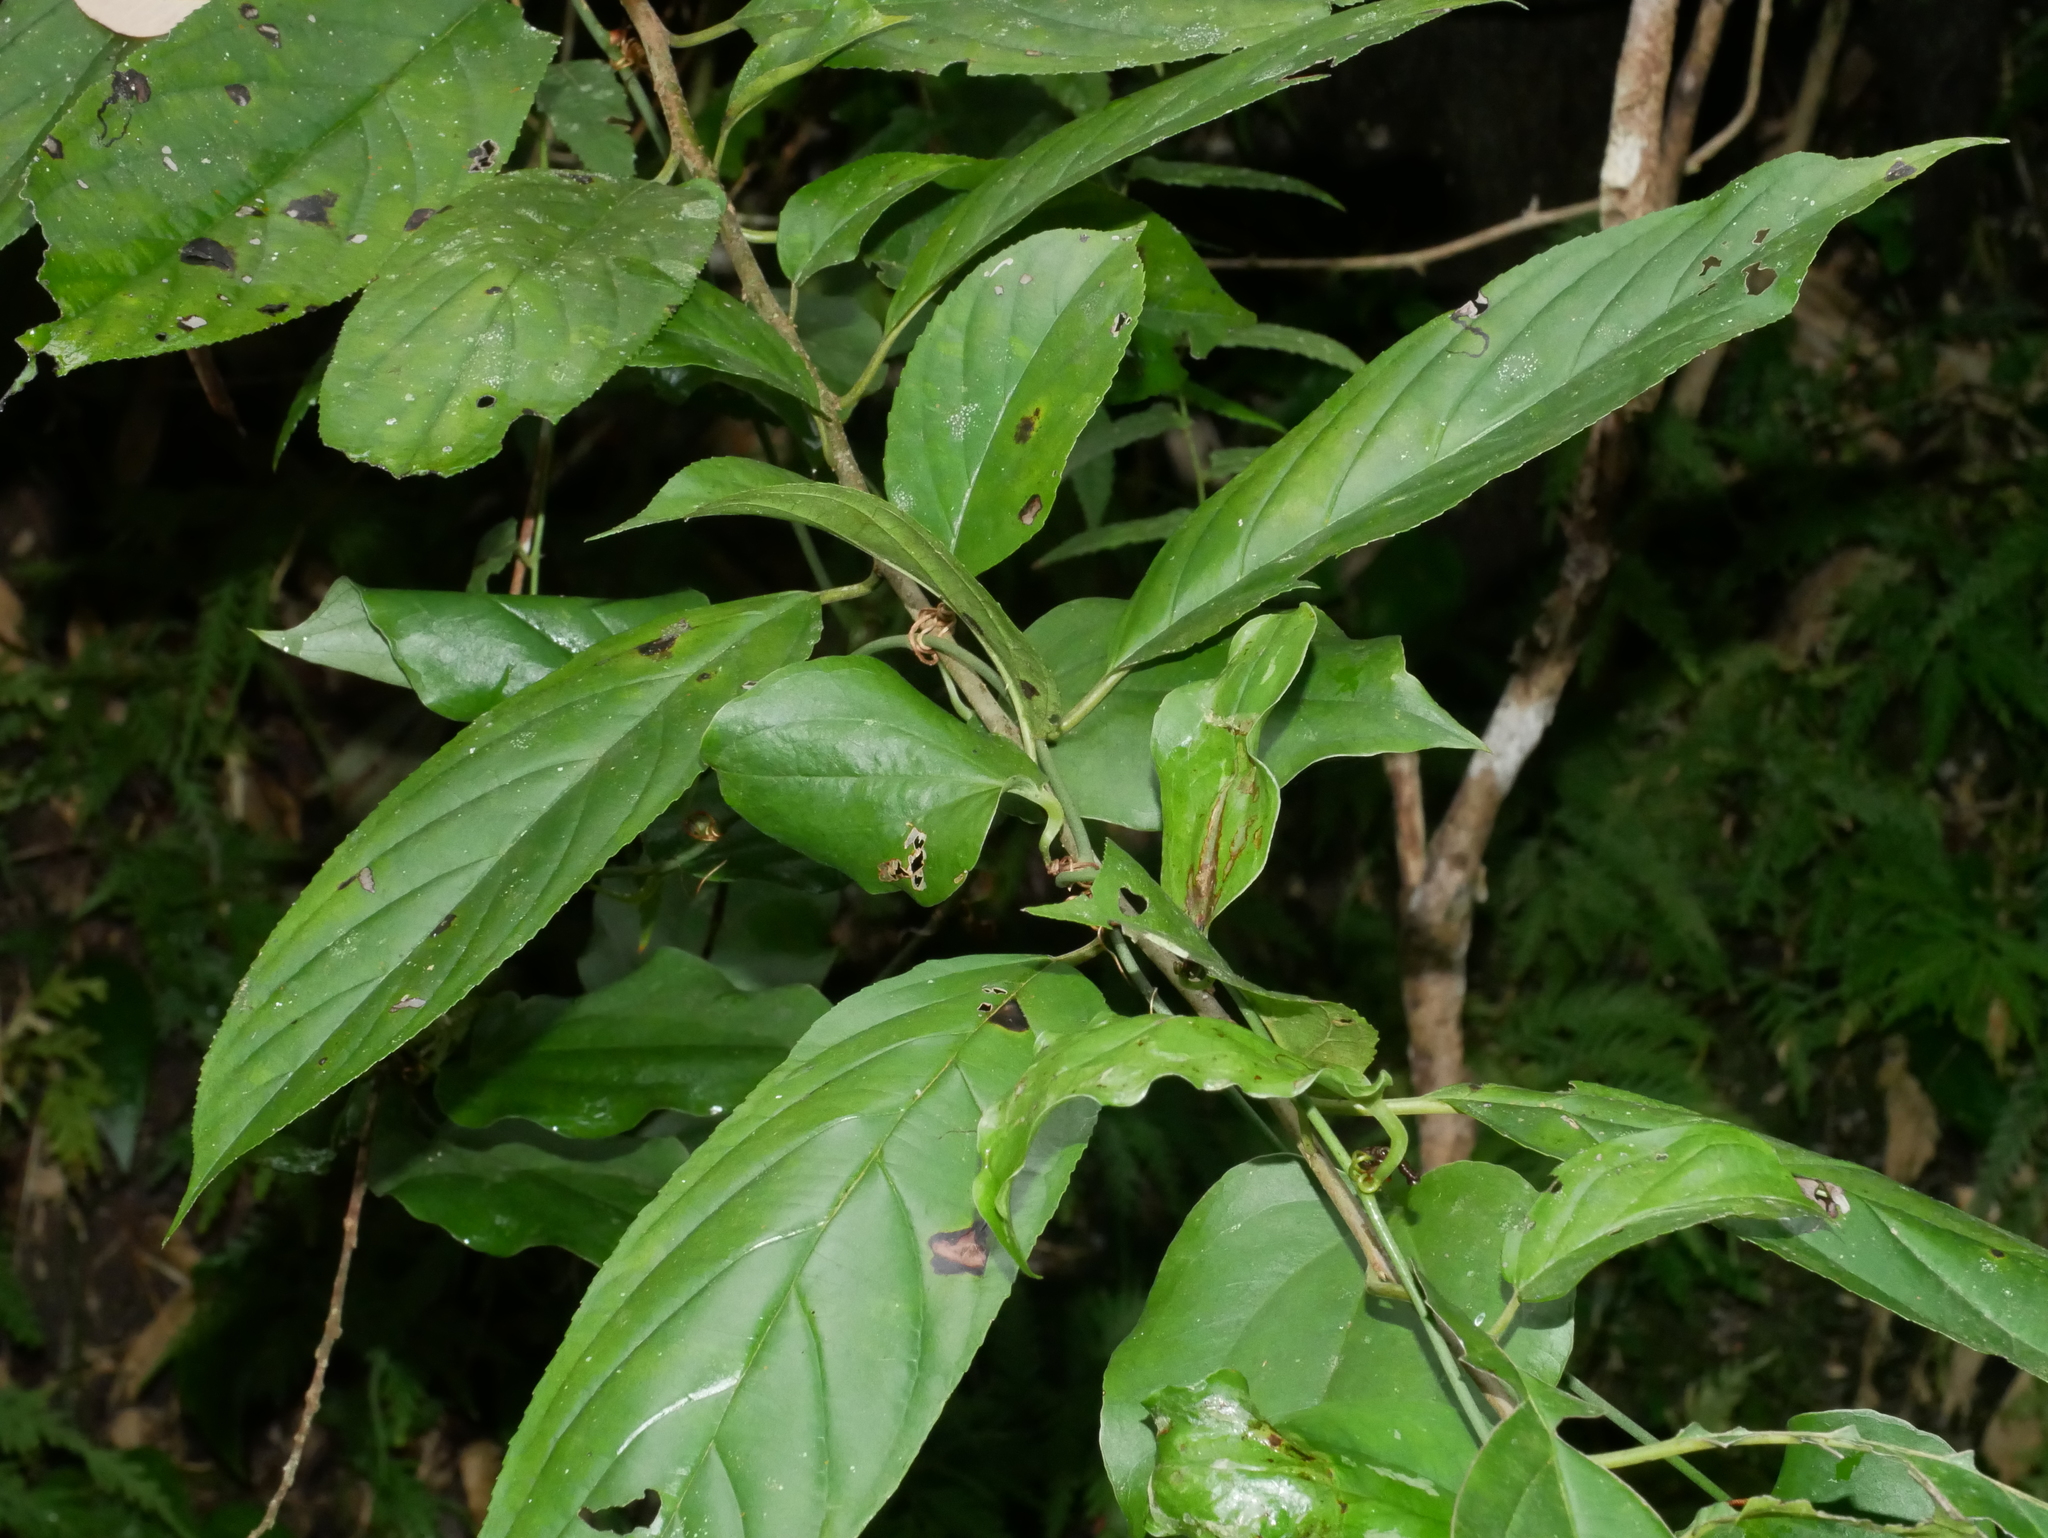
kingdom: Plantae
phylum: Tracheophyta
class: Magnoliopsida
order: Rosales
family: Rhamnaceae
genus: Rhamnus
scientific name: Rhamnus formosana
